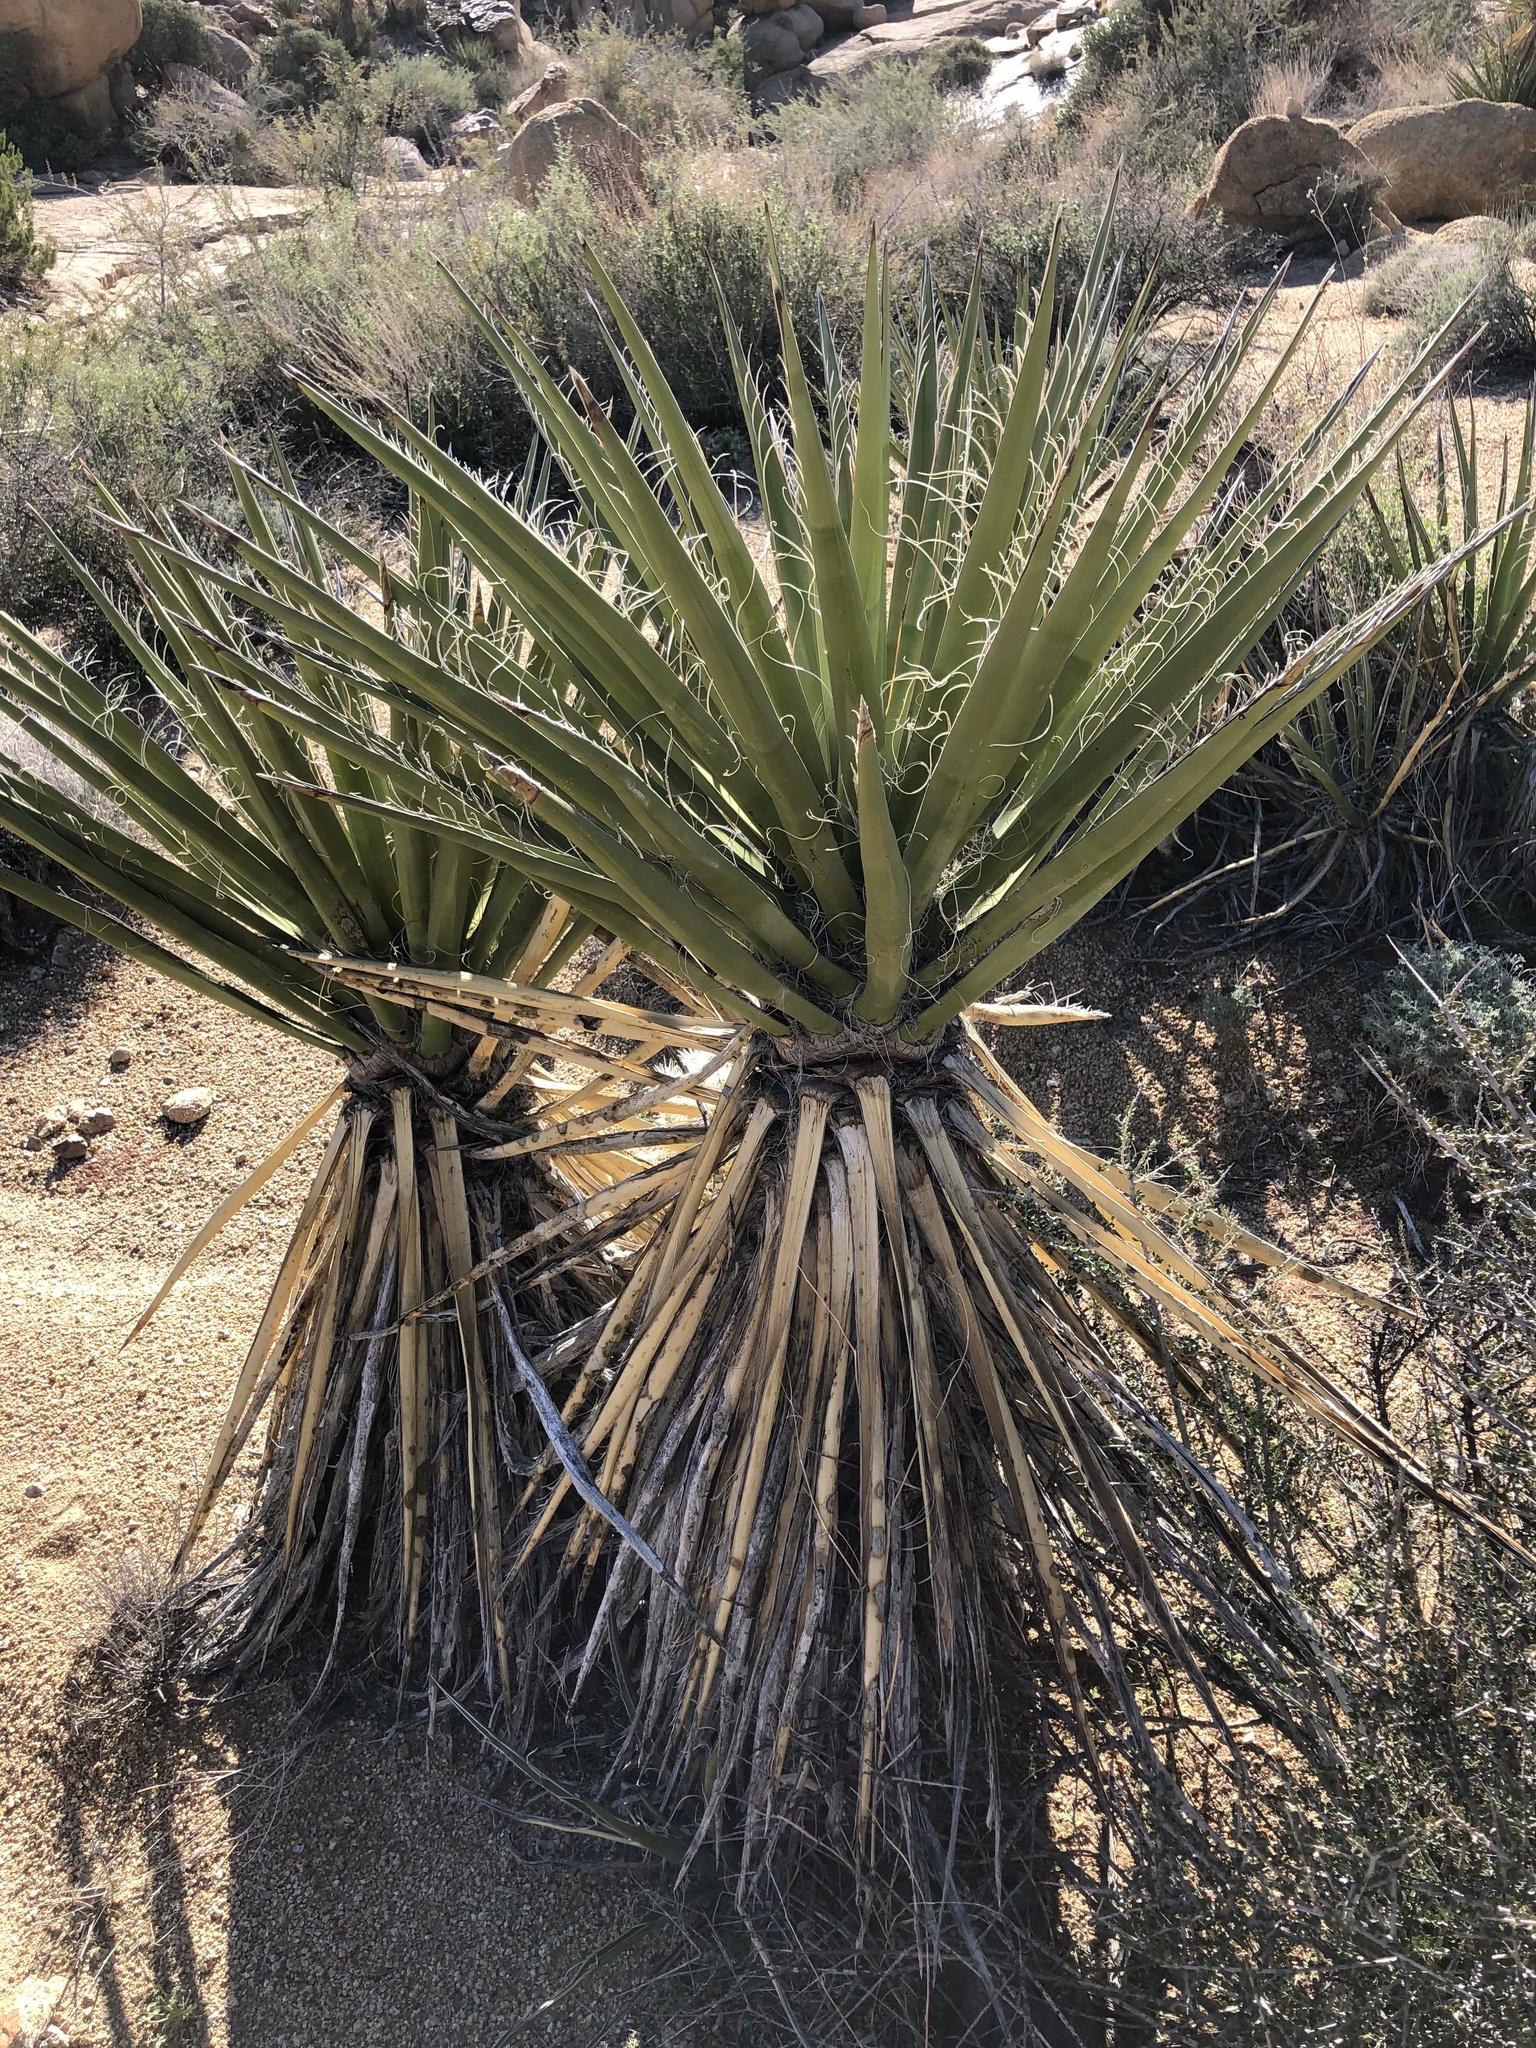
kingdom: Plantae
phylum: Tracheophyta
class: Liliopsida
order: Asparagales
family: Asparagaceae
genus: Yucca
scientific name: Yucca schidigera
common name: Mojave yucca
